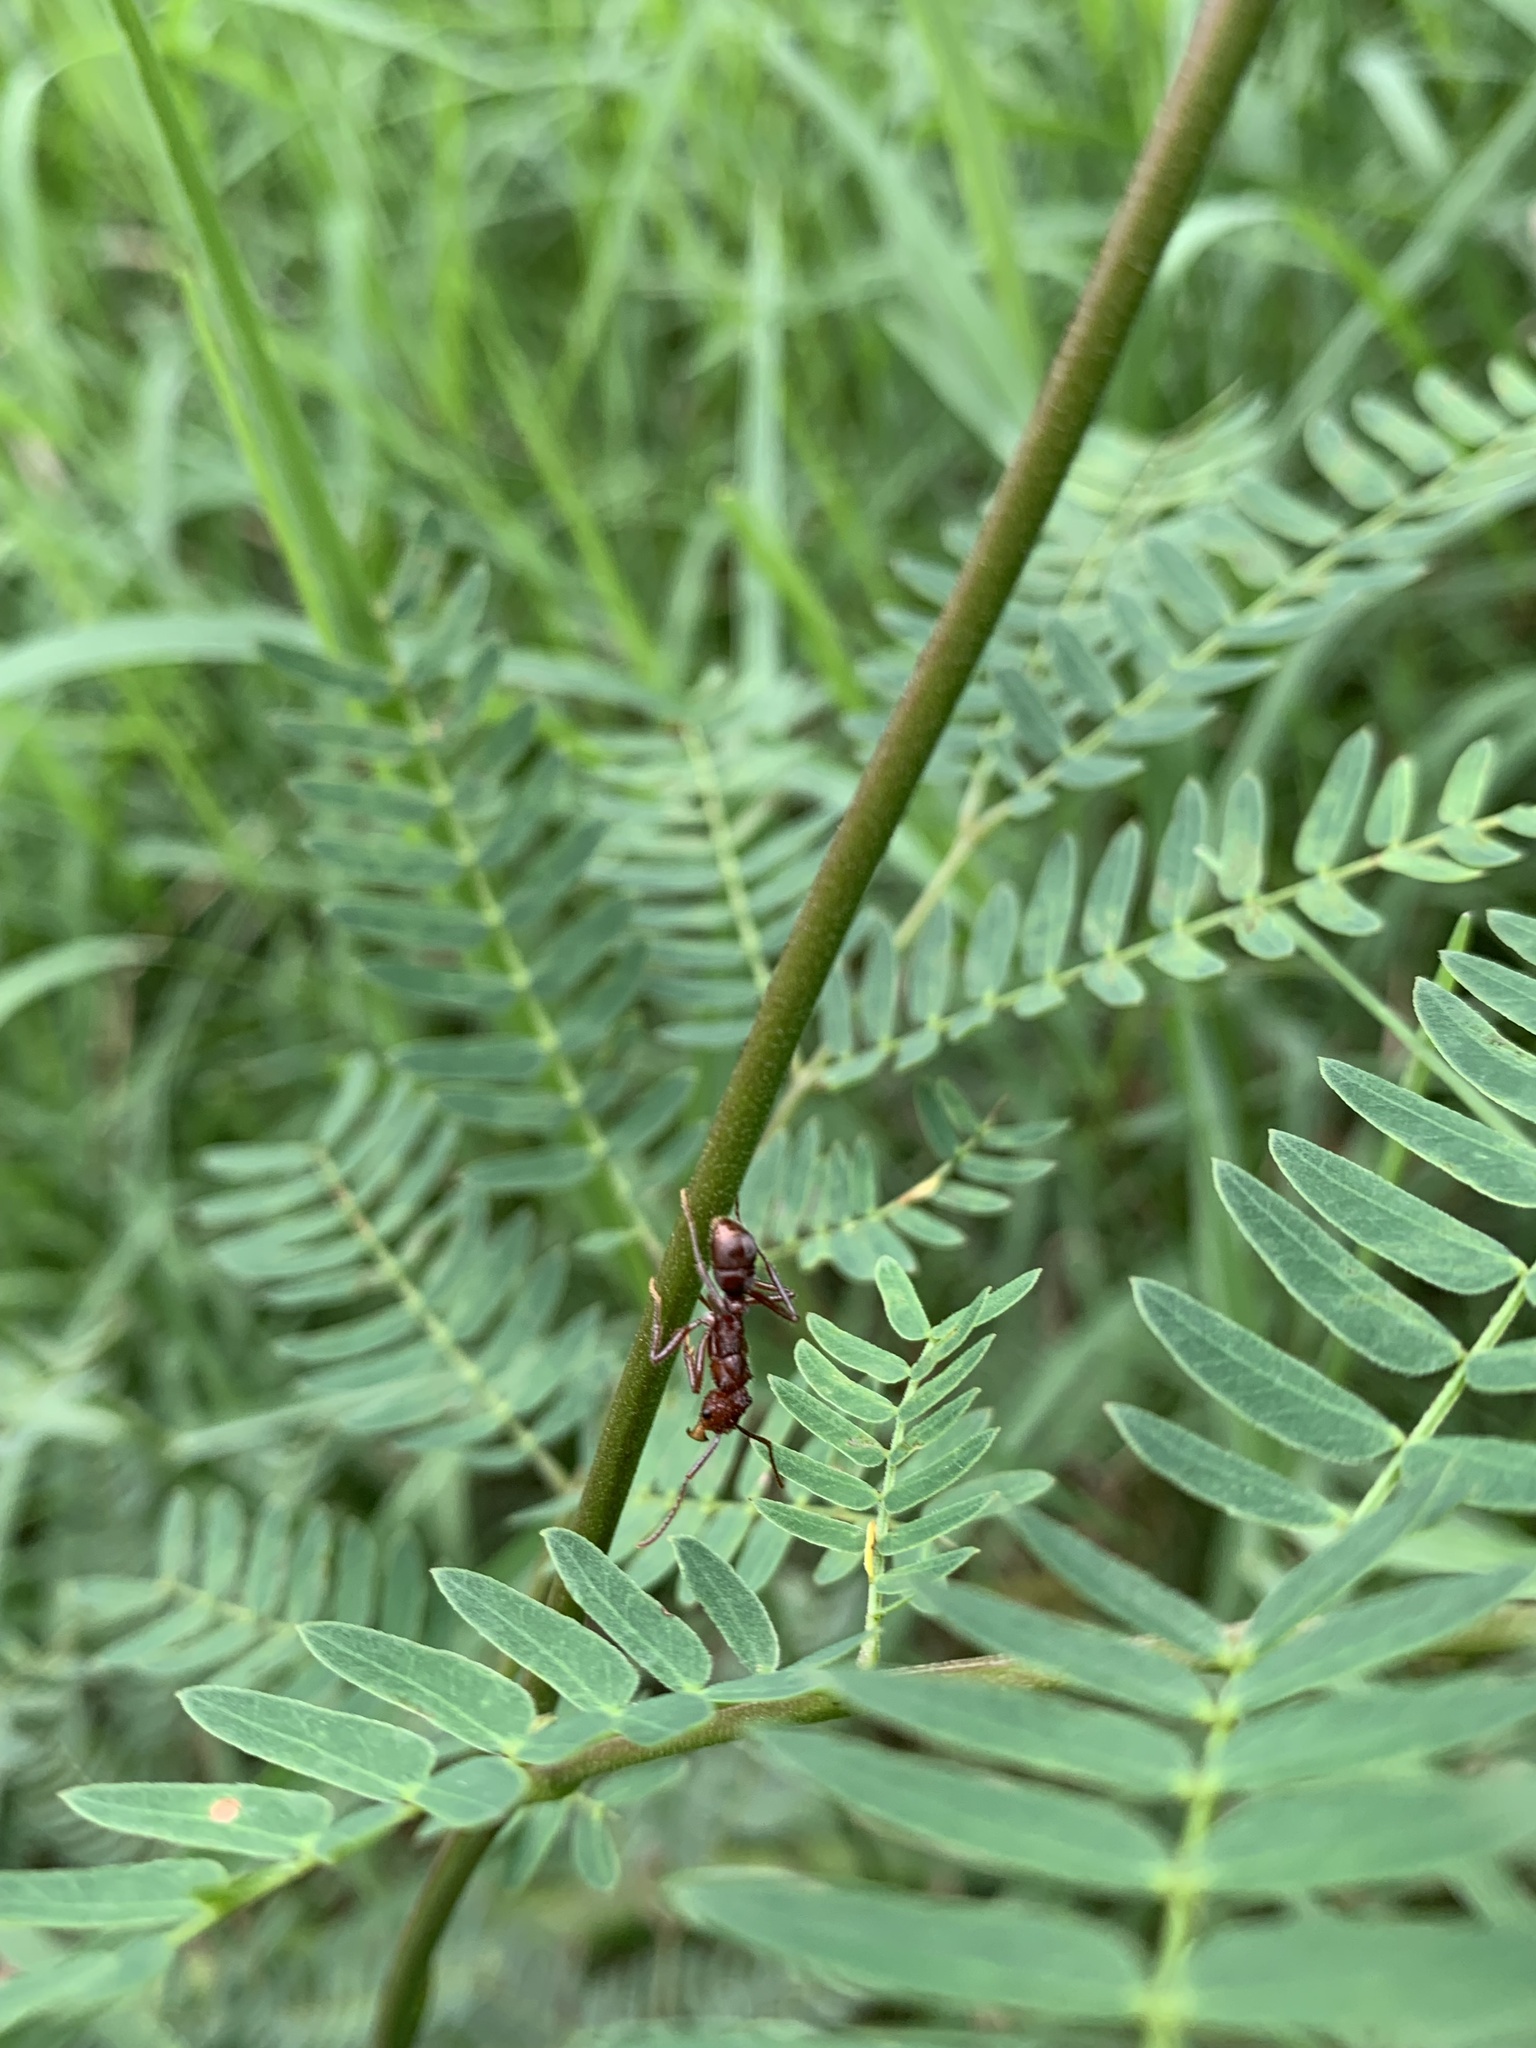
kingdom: Animalia
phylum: Arthropoda
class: Insecta
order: Hymenoptera
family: Formicidae
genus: Ectatomma
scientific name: Ectatomma tuberculatum
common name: Ant
